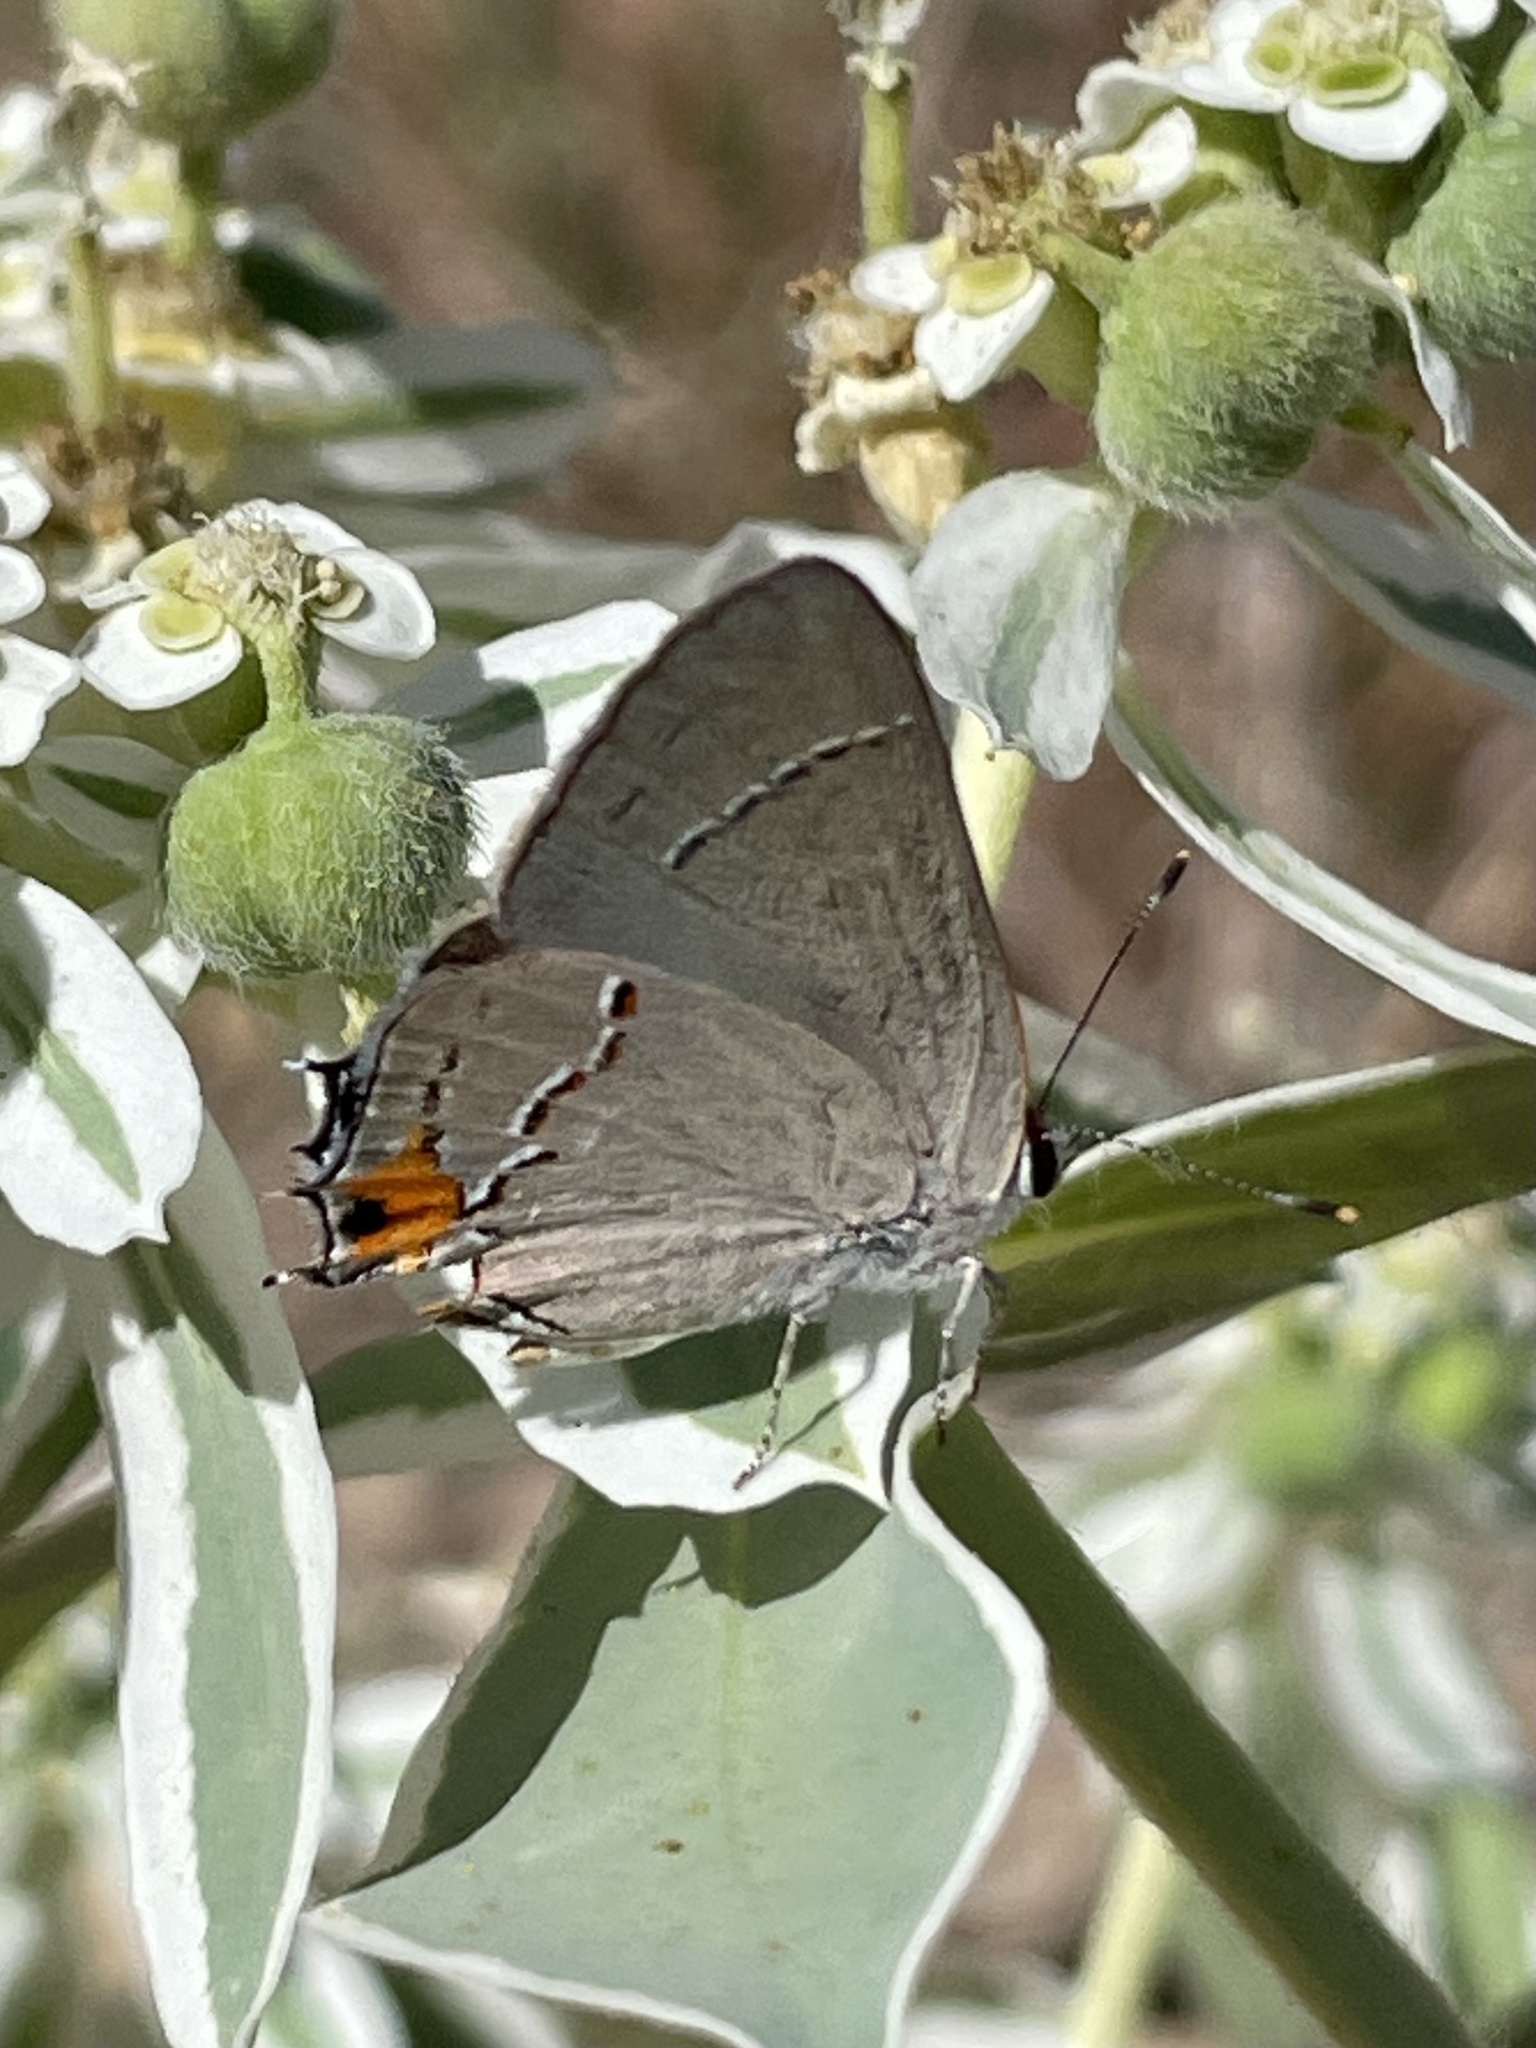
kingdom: Animalia
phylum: Arthropoda
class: Insecta
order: Lepidoptera
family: Lycaenidae
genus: Strymon
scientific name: Strymon melinus
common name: Gray hairstreak
